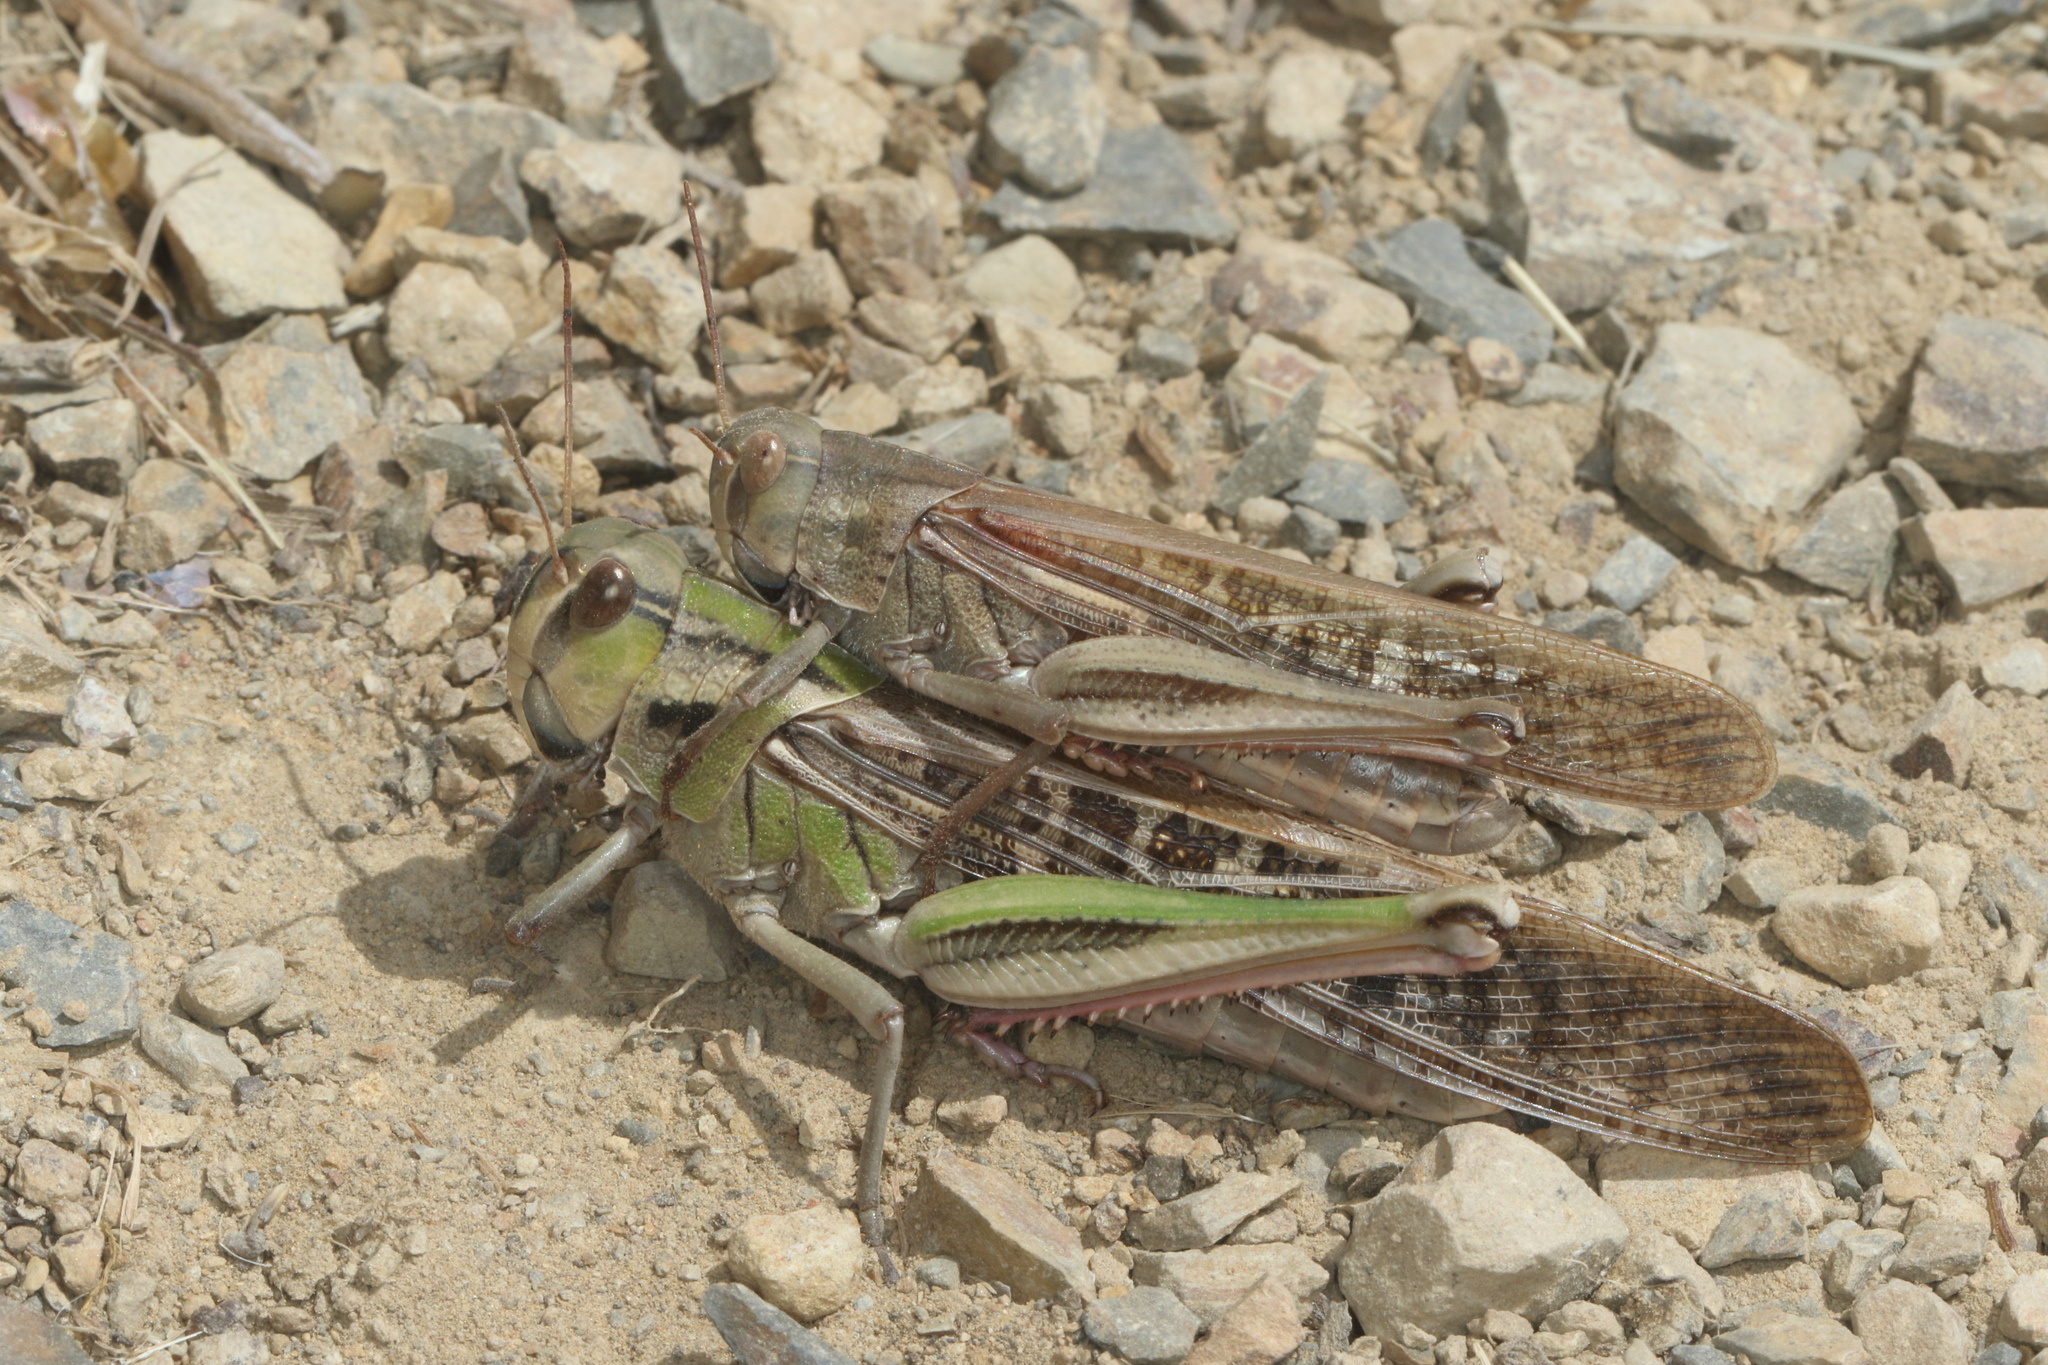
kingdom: Animalia
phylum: Arthropoda
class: Insecta
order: Orthoptera
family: Acrididae
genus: Locusta
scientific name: Locusta migratoria
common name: Migratory locust
